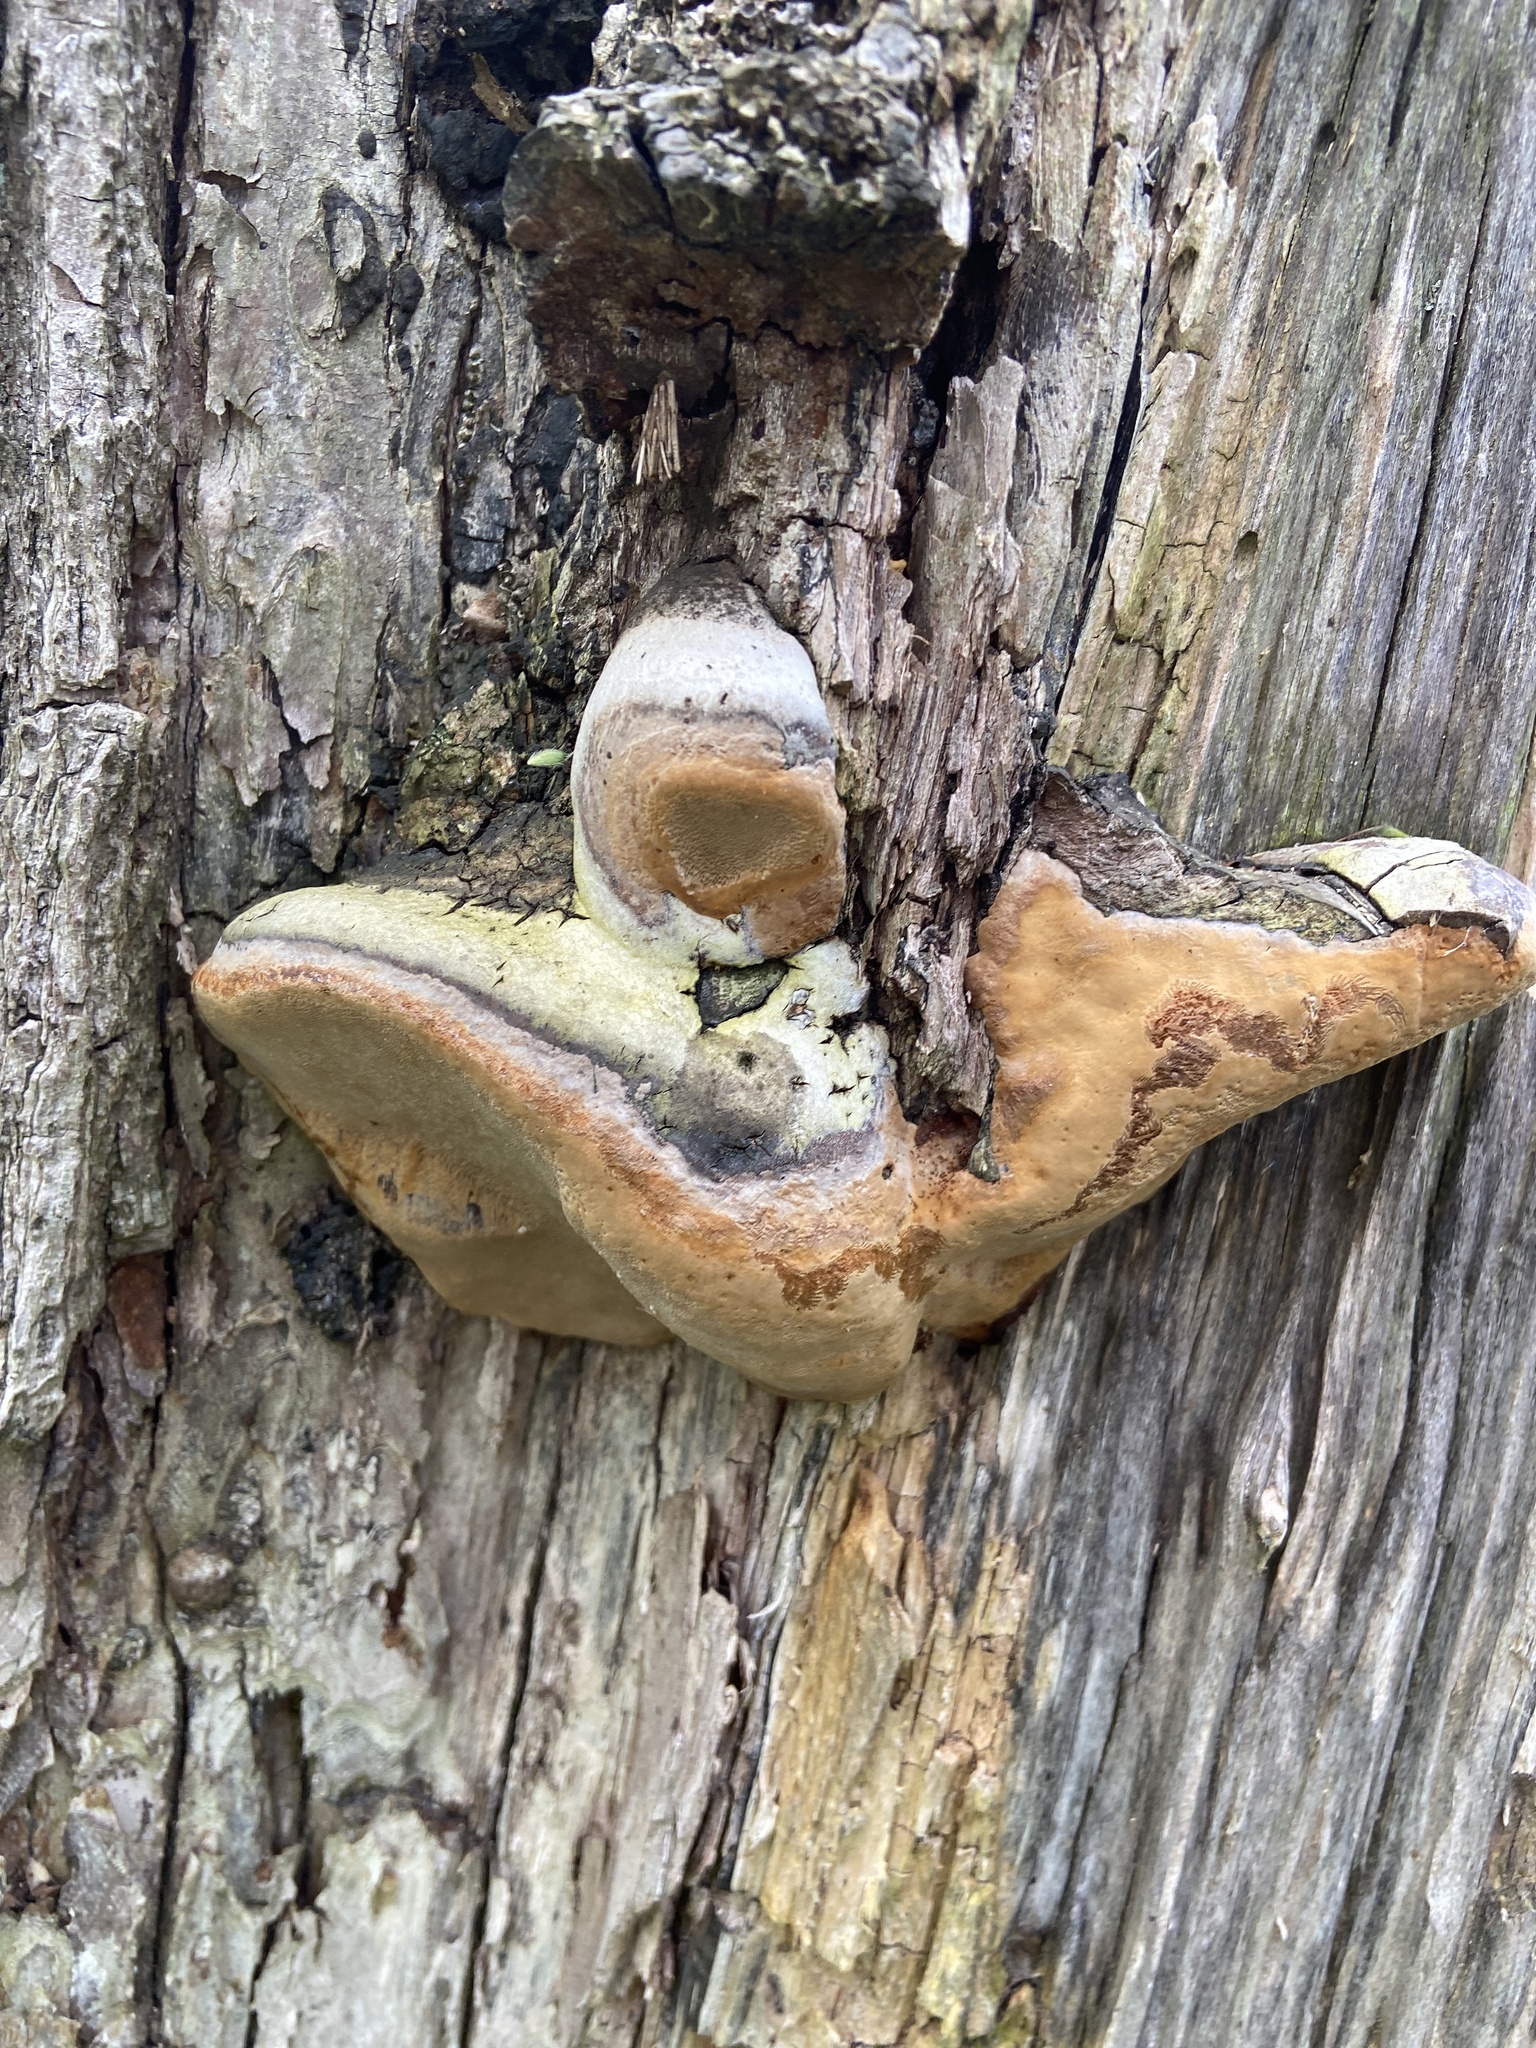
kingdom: Fungi
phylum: Basidiomycota
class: Agaricomycetes
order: Hymenochaetales
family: Hymenochaetaceae
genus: Phellinus
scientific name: Phellinus igniarius
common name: Willow bracket
